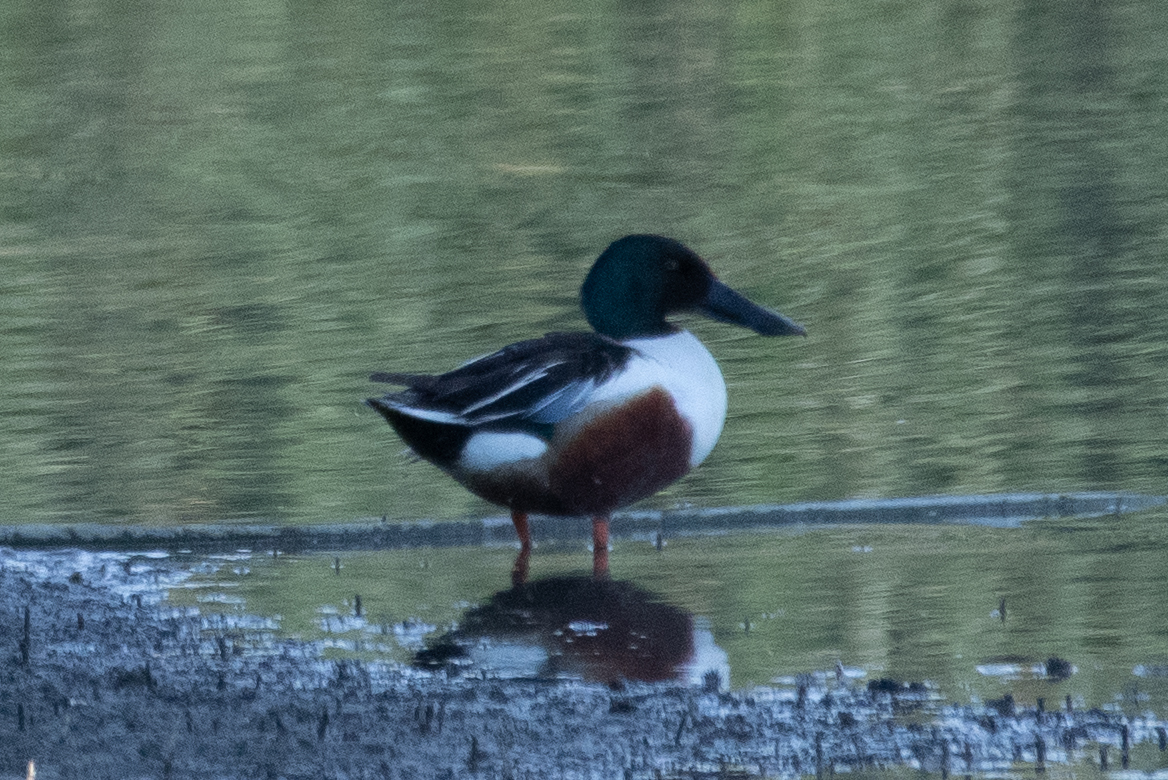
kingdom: Animalia
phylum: Chordata
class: Aves
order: Anseriformes
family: Anatidae
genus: Spatula
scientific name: Spatula clypeata
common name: Northern shoveler
